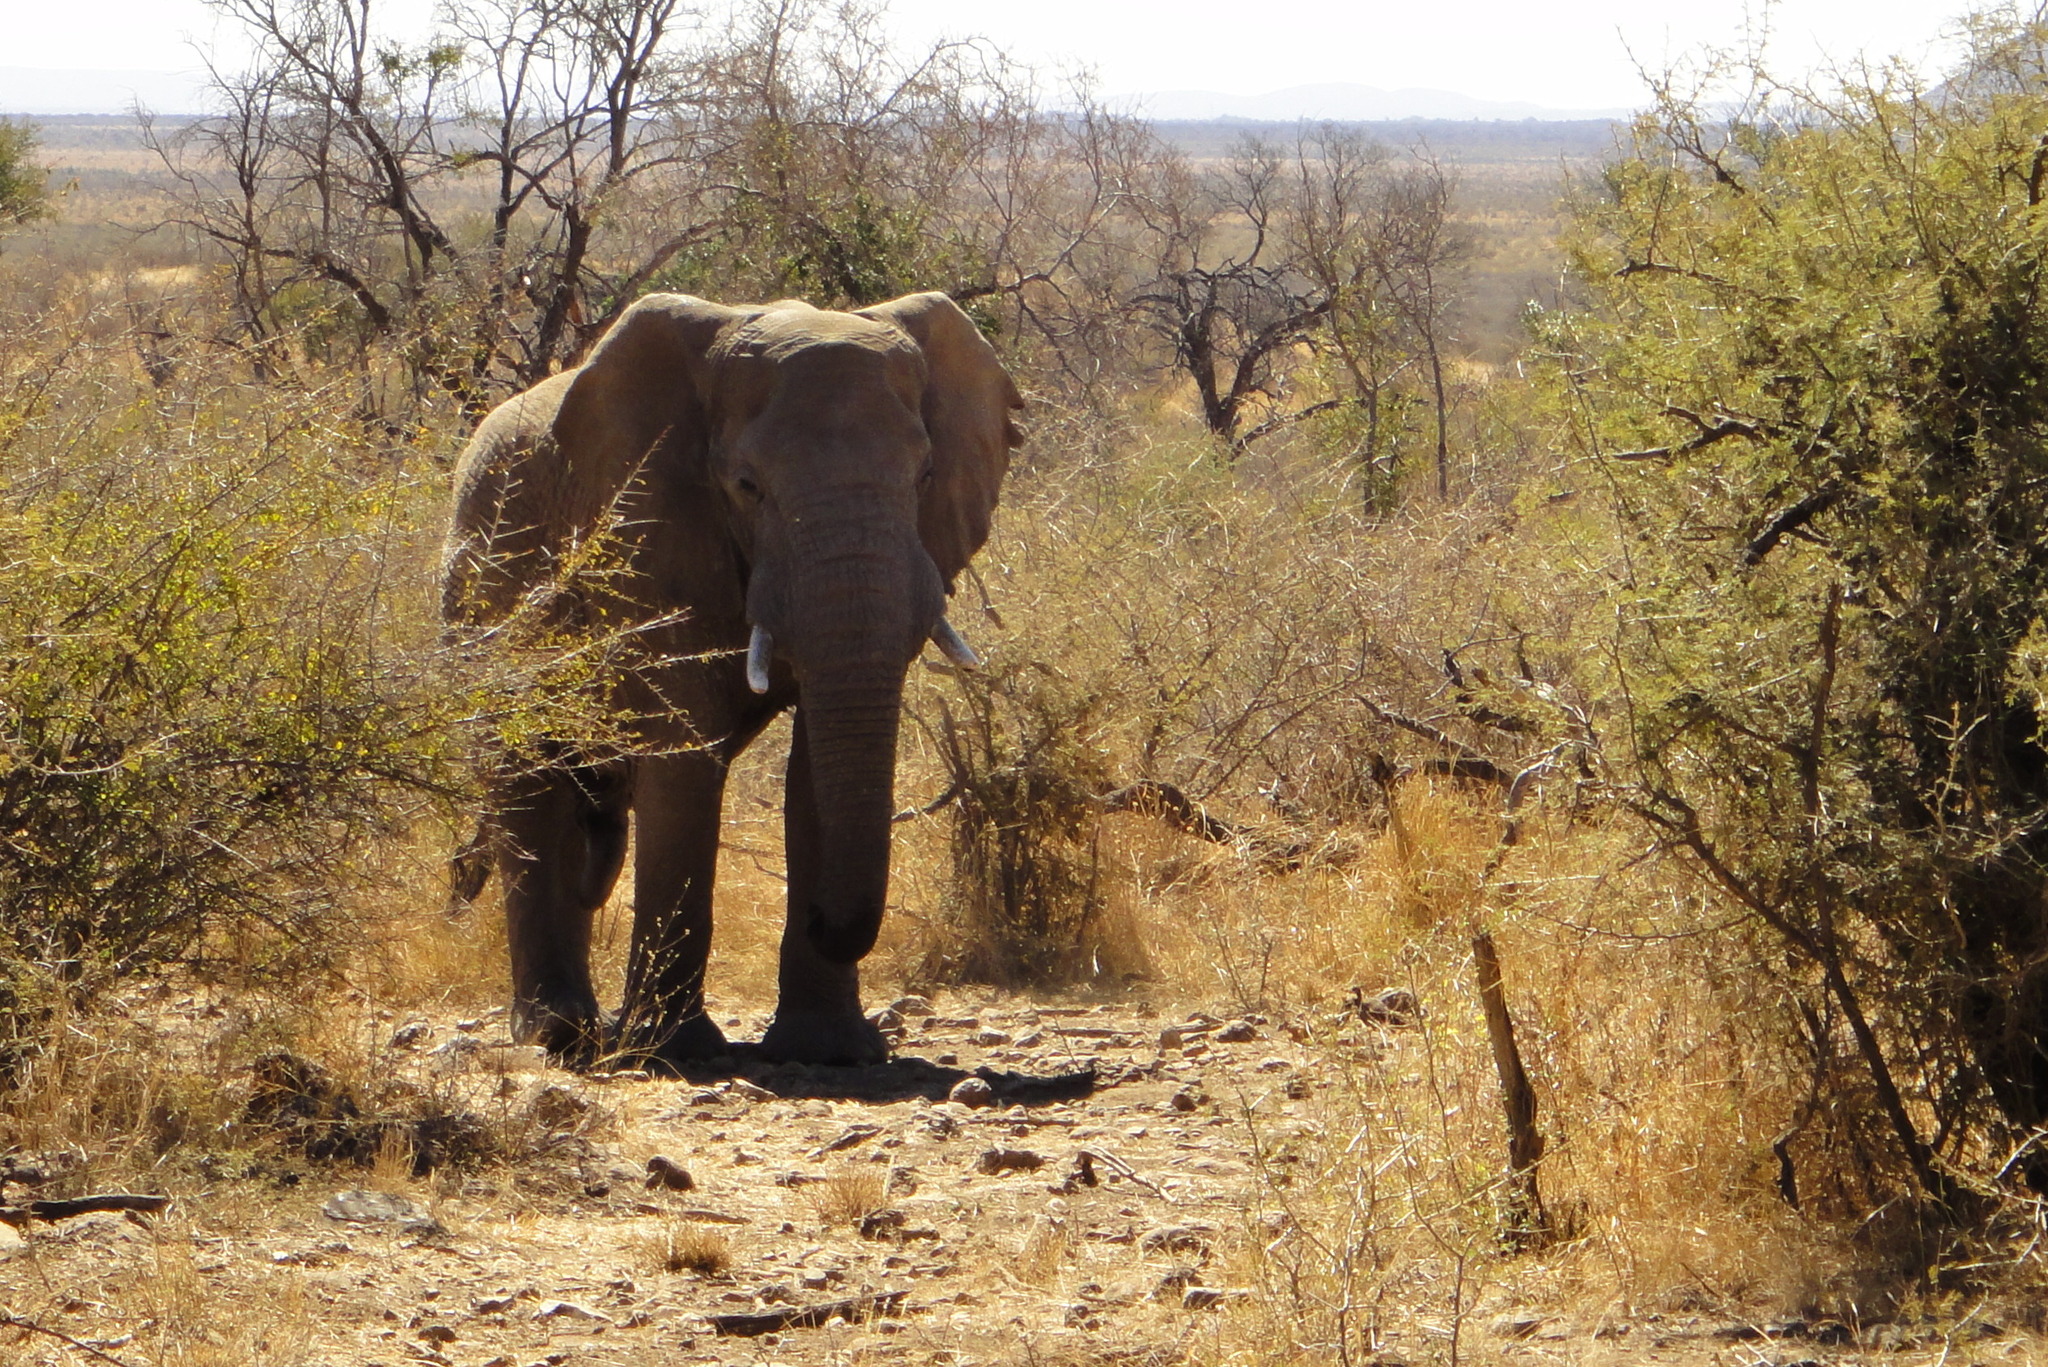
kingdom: Animalia
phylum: Chordata
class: Mammalia
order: Proboscidea
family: Elephantidae
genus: Loxodonta
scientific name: Loxodonta africana
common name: African elephant
